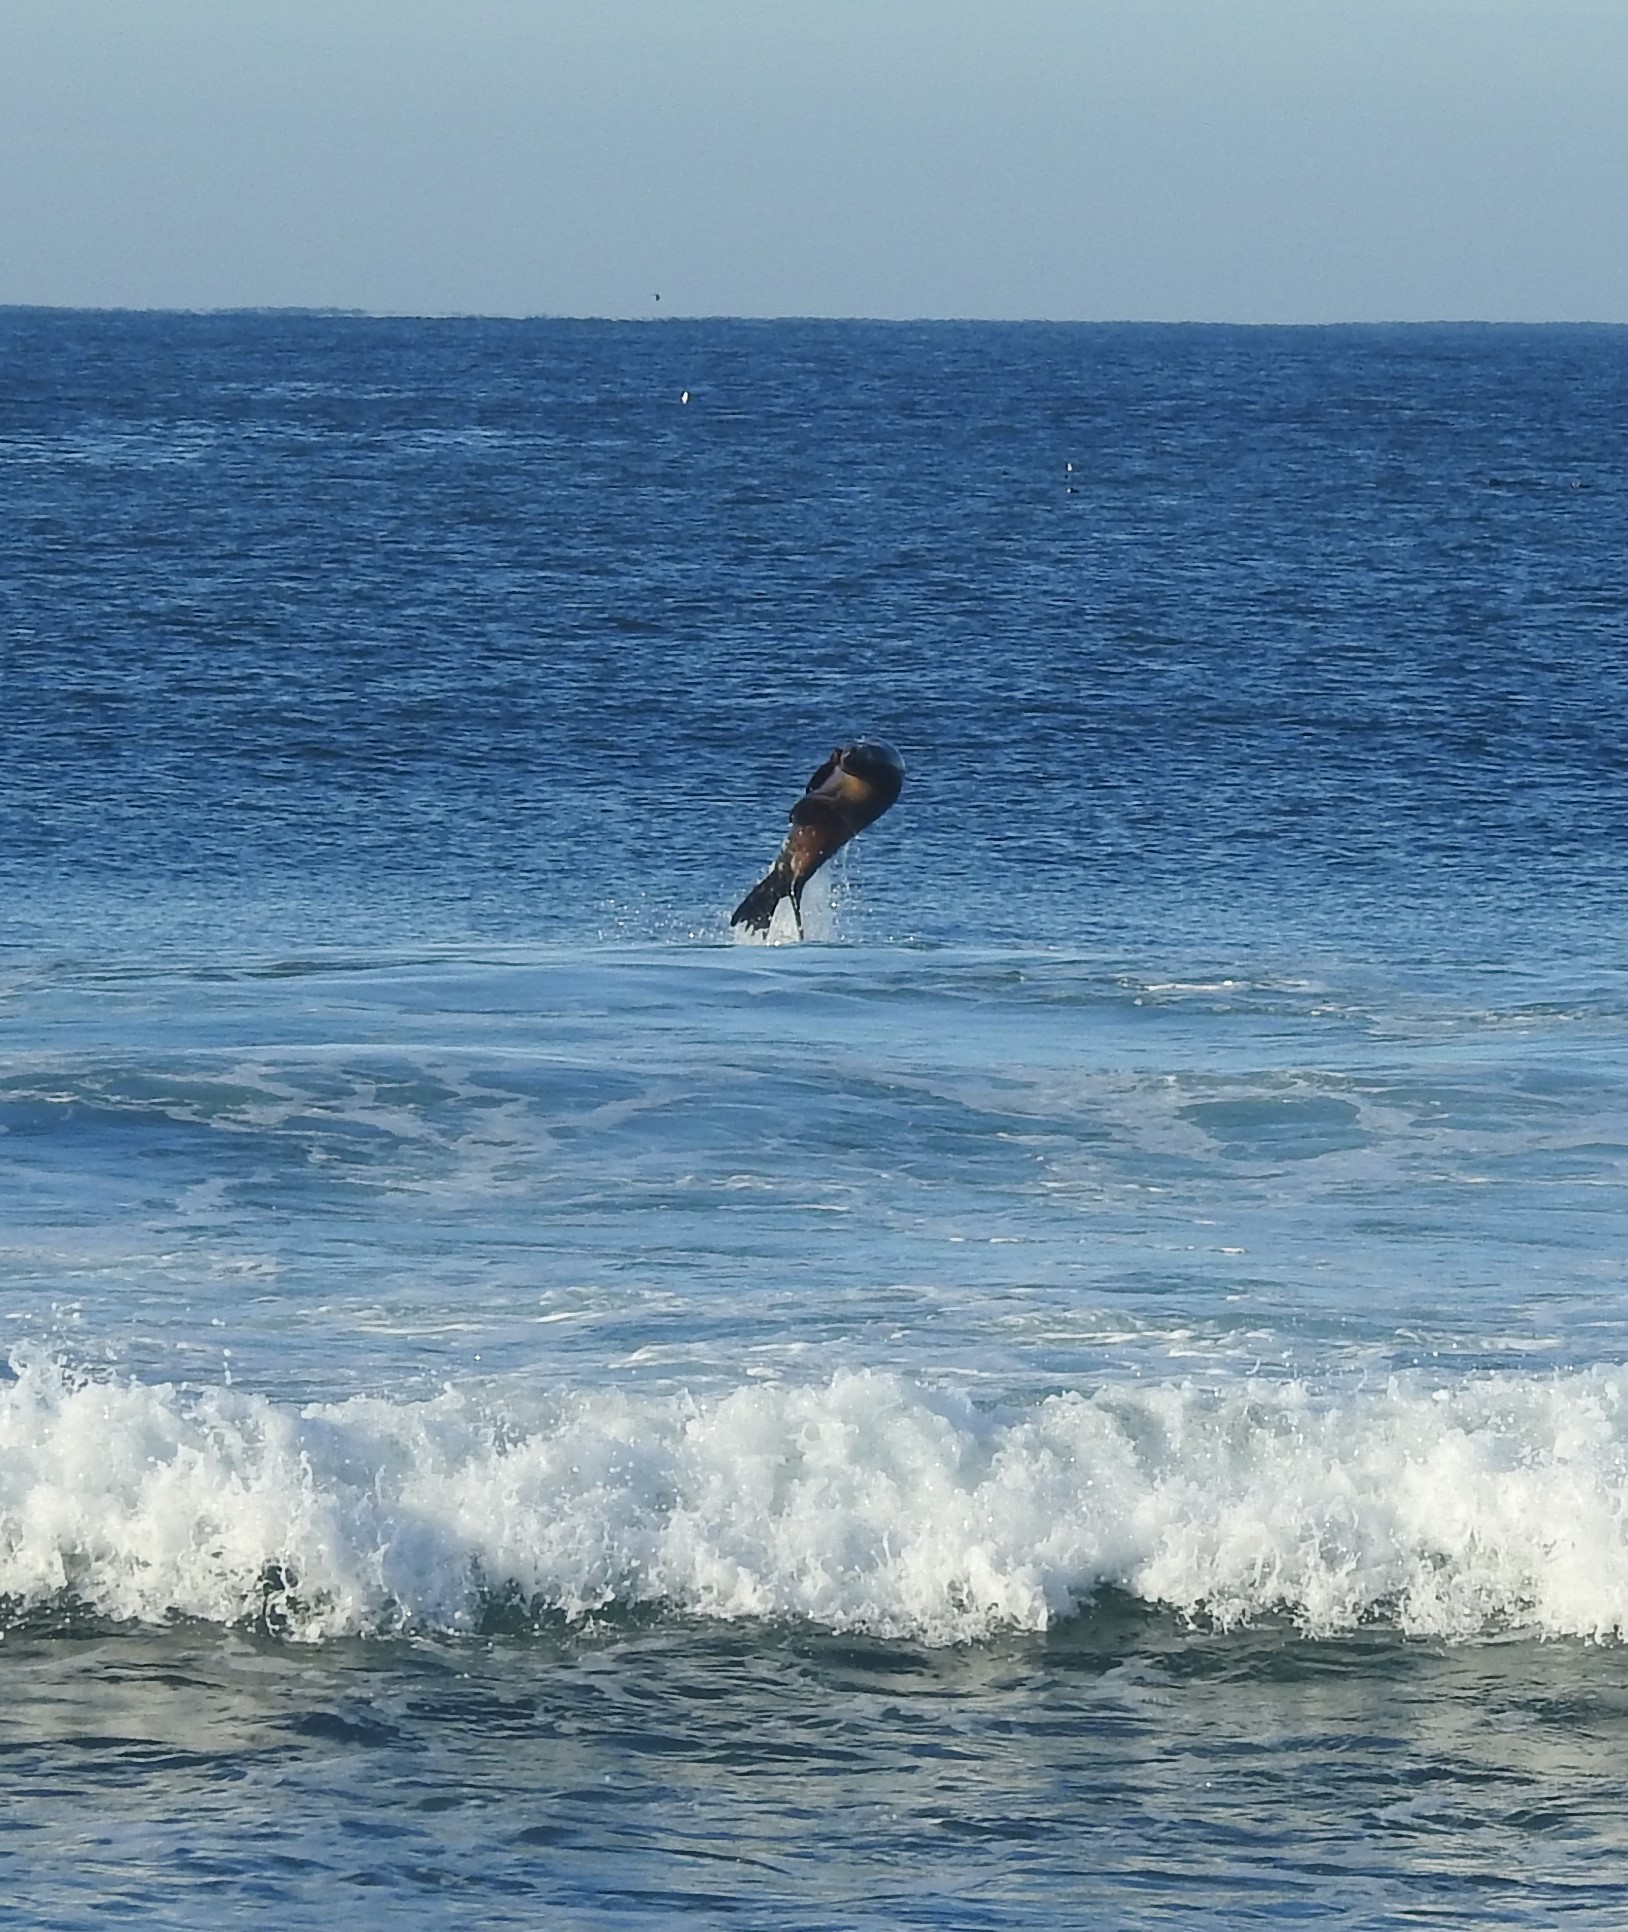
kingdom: Animalia
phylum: Chordata
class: Mammalia
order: Carnivora
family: Otariidae
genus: Zalophus
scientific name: Zalophus californianus
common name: California sea lion
